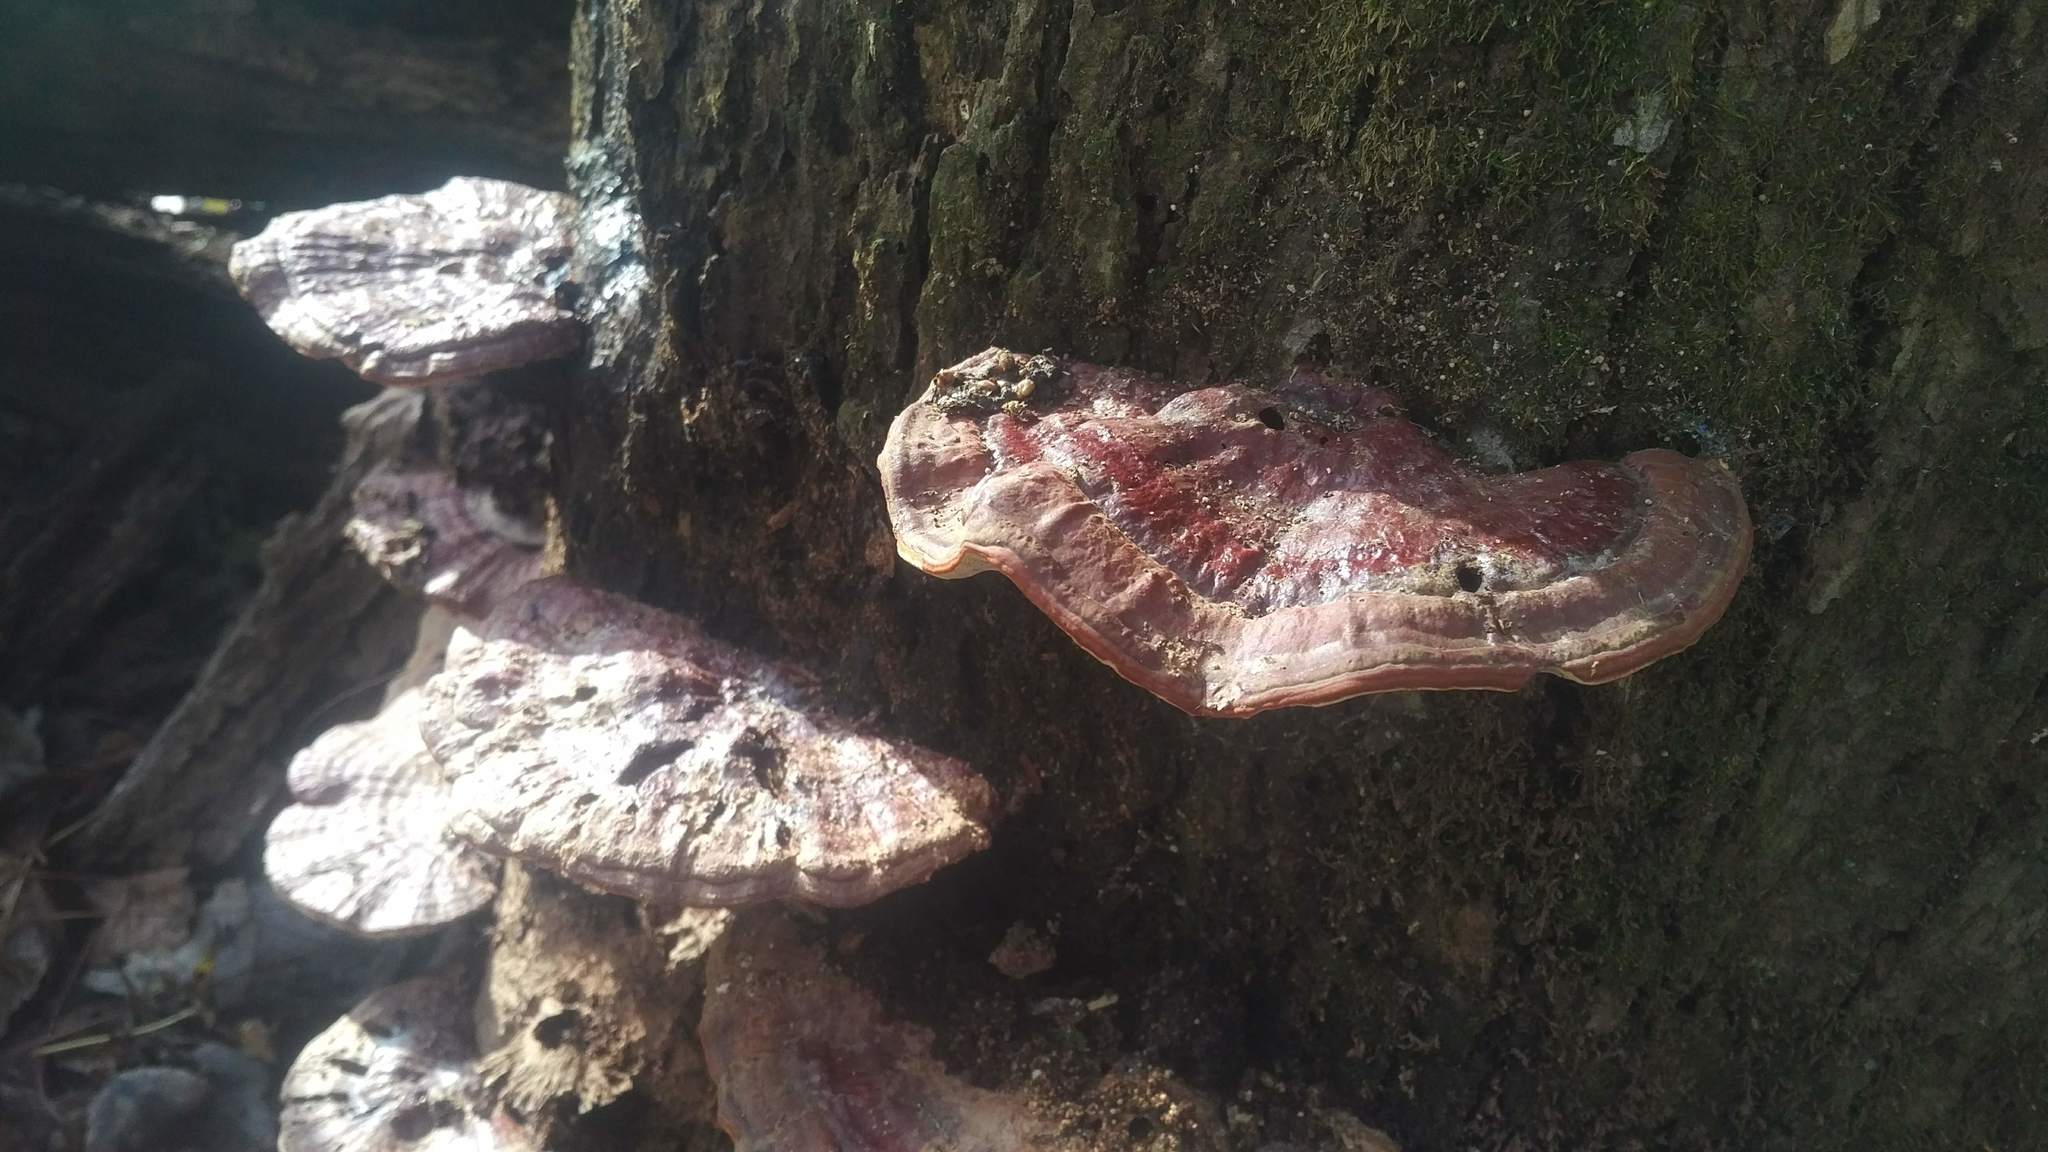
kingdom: Fungi
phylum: Basidiomycota
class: Agaricomycetes
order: Polyporales
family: Polyporaceae
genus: Ganoderma
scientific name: Ganoderma resinaceum
